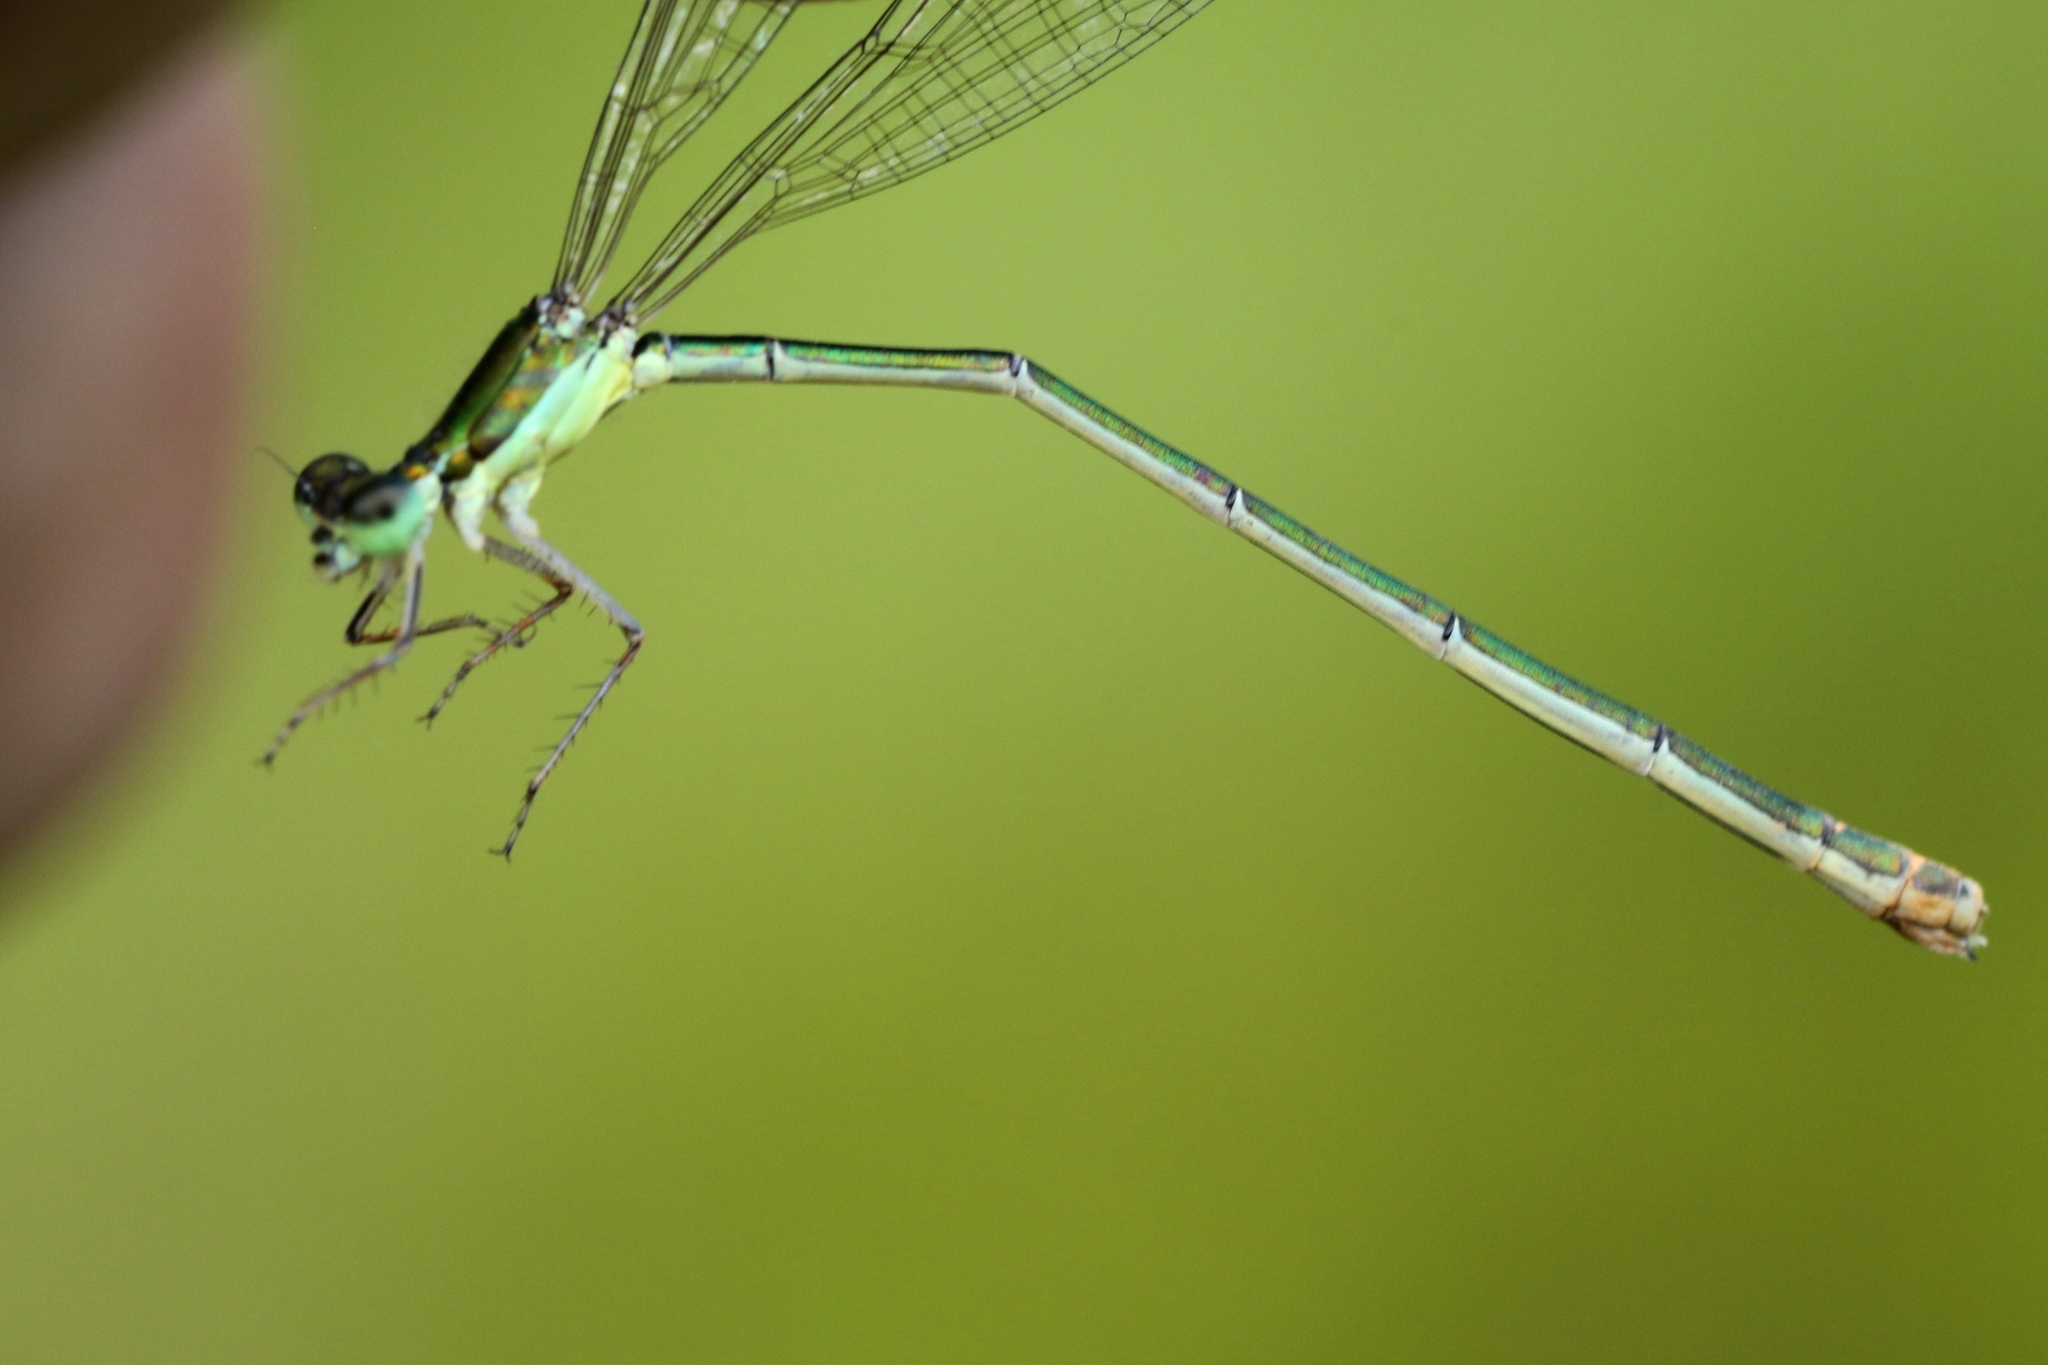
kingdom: Animalia
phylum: Arthropoda
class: Insecta
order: Odonata
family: Coenagrionidae
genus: Nehalennia
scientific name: Nehalennia irene
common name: Sedge sprite
